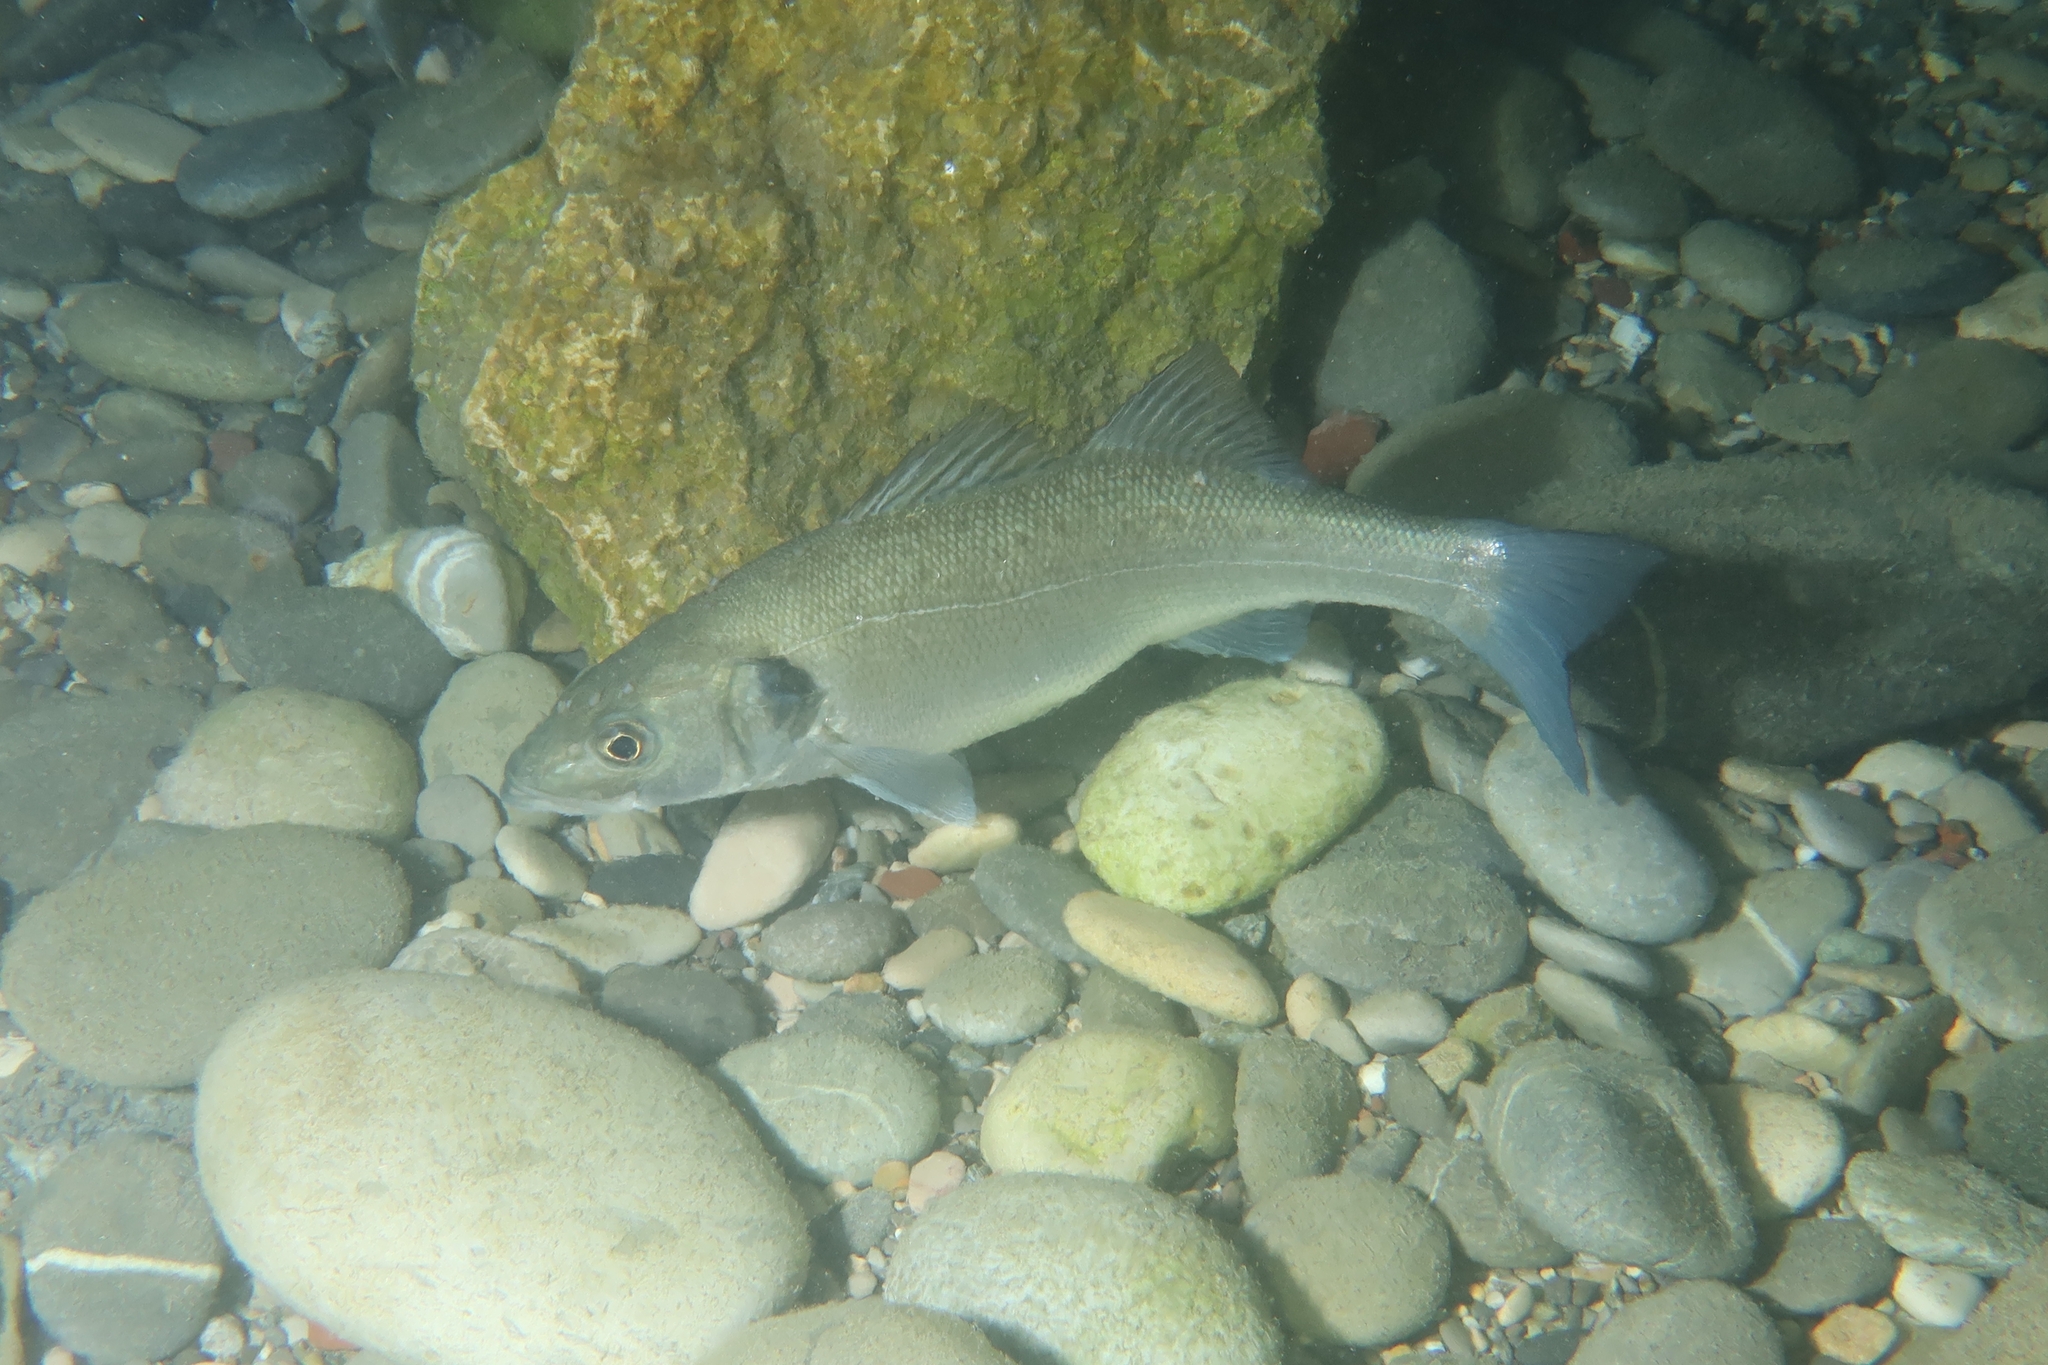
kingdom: Animalia
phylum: Chordata
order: Perciformes
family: Moronidae
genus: Dicentrarchus
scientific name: Dicentrarchus labrax
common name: European seabass
